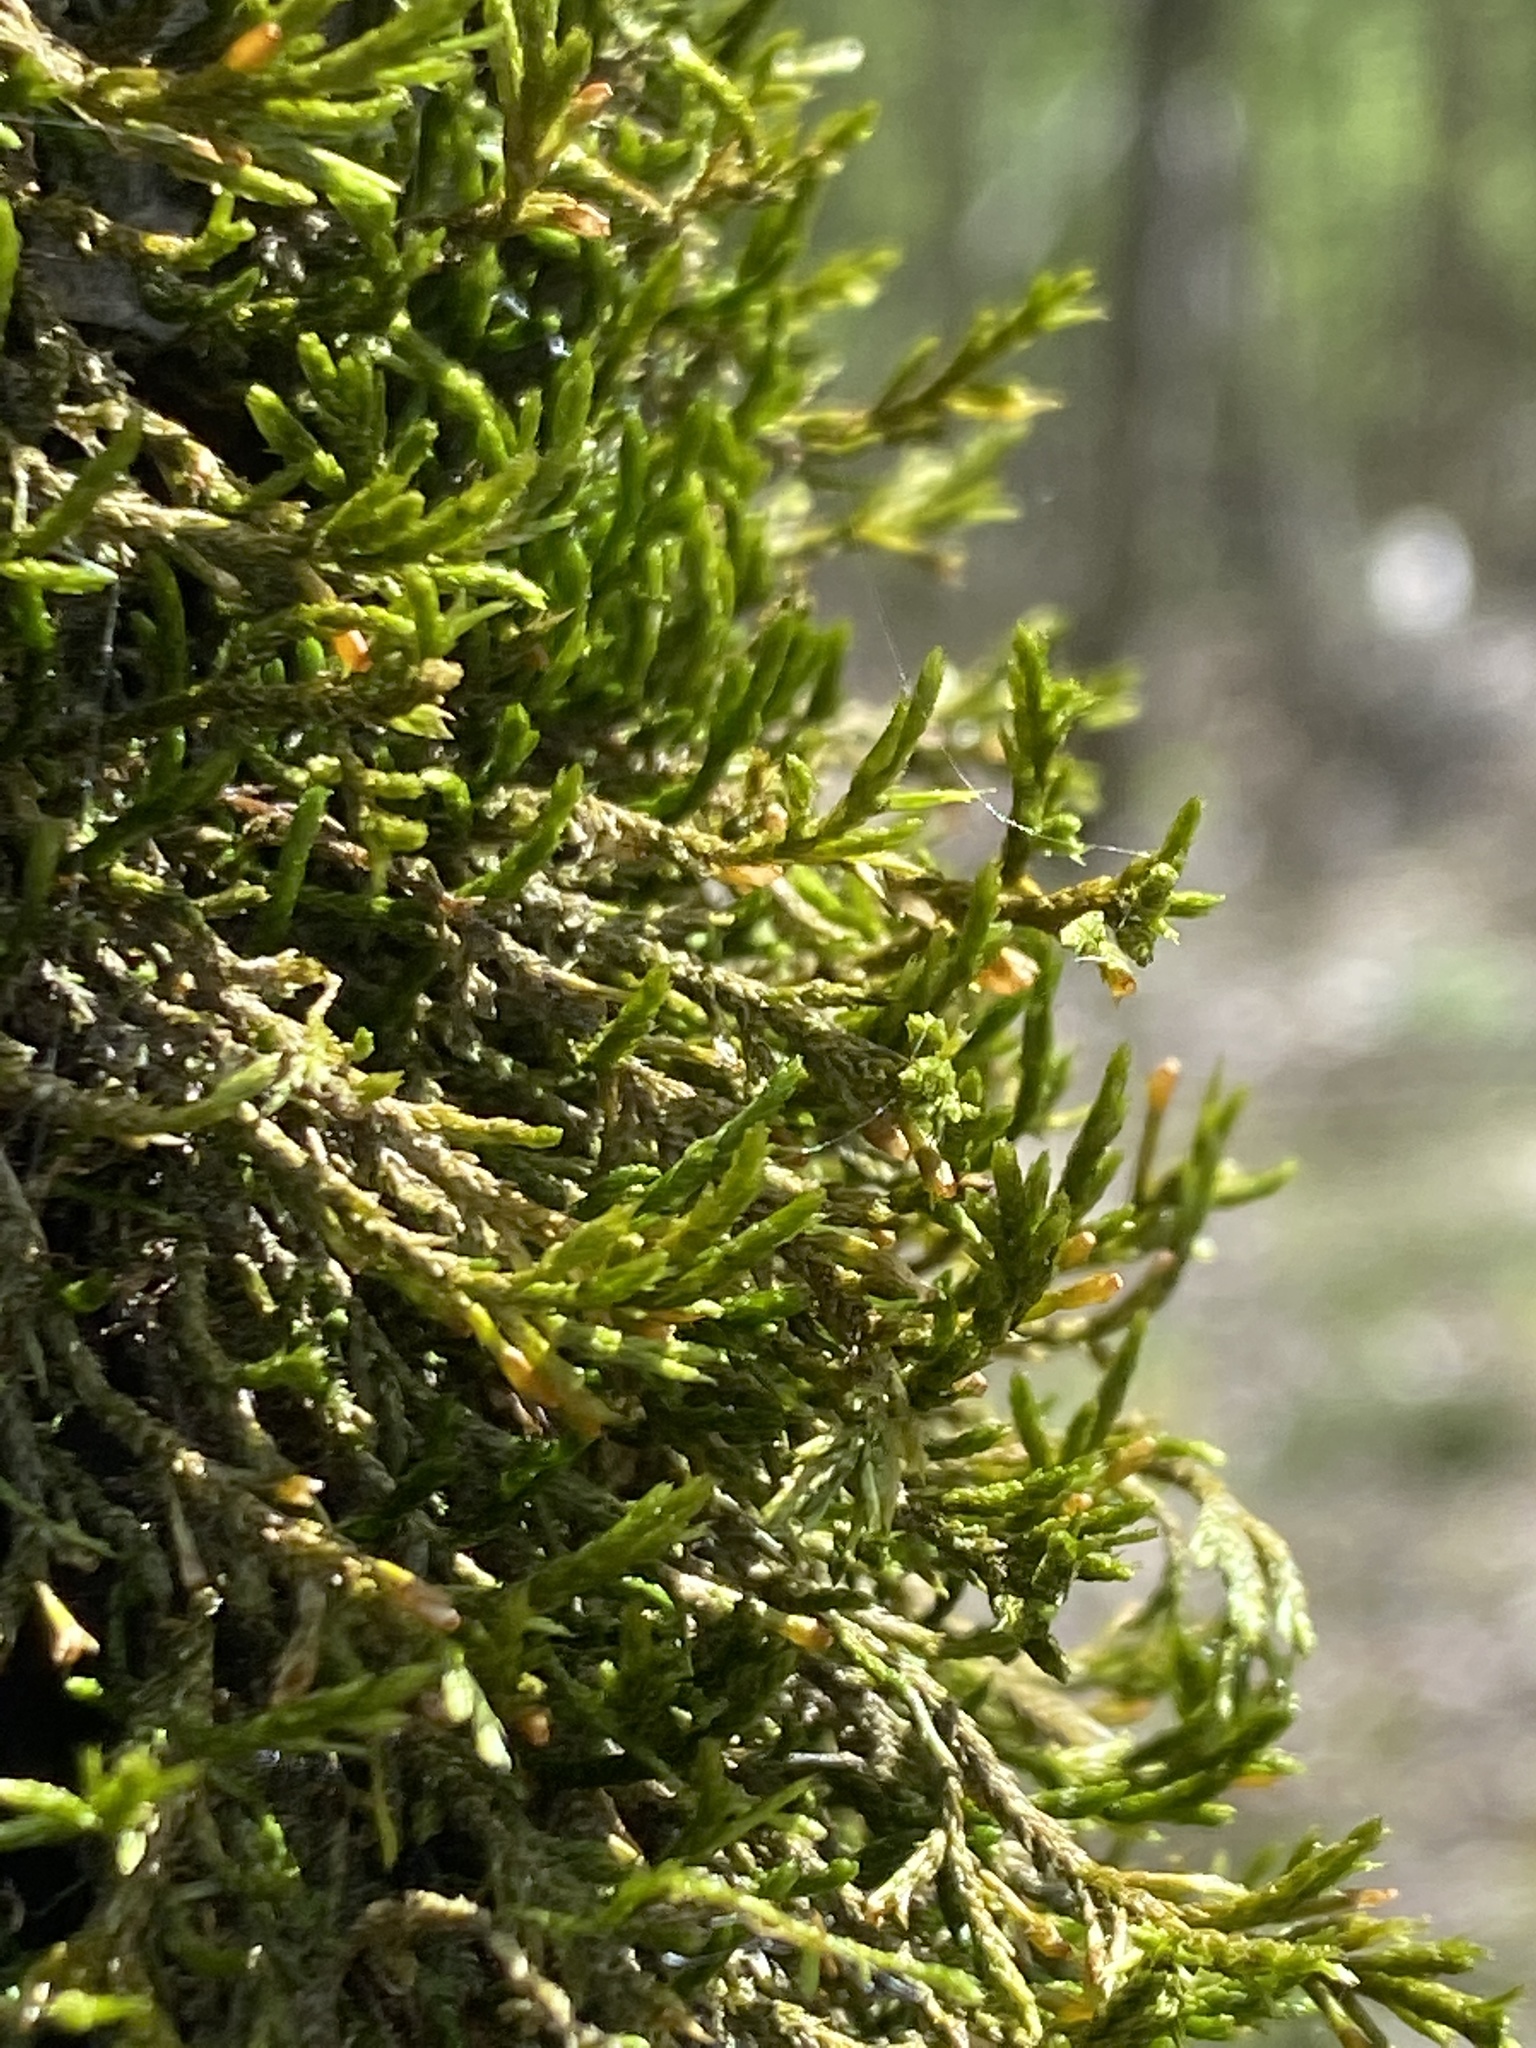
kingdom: Plantae
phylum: Bryophyta
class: Bryopsida
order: Hypnales
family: Neckeraceae
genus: Forsstroemia
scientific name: Forsstroemia trichomitria
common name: Fan moss
